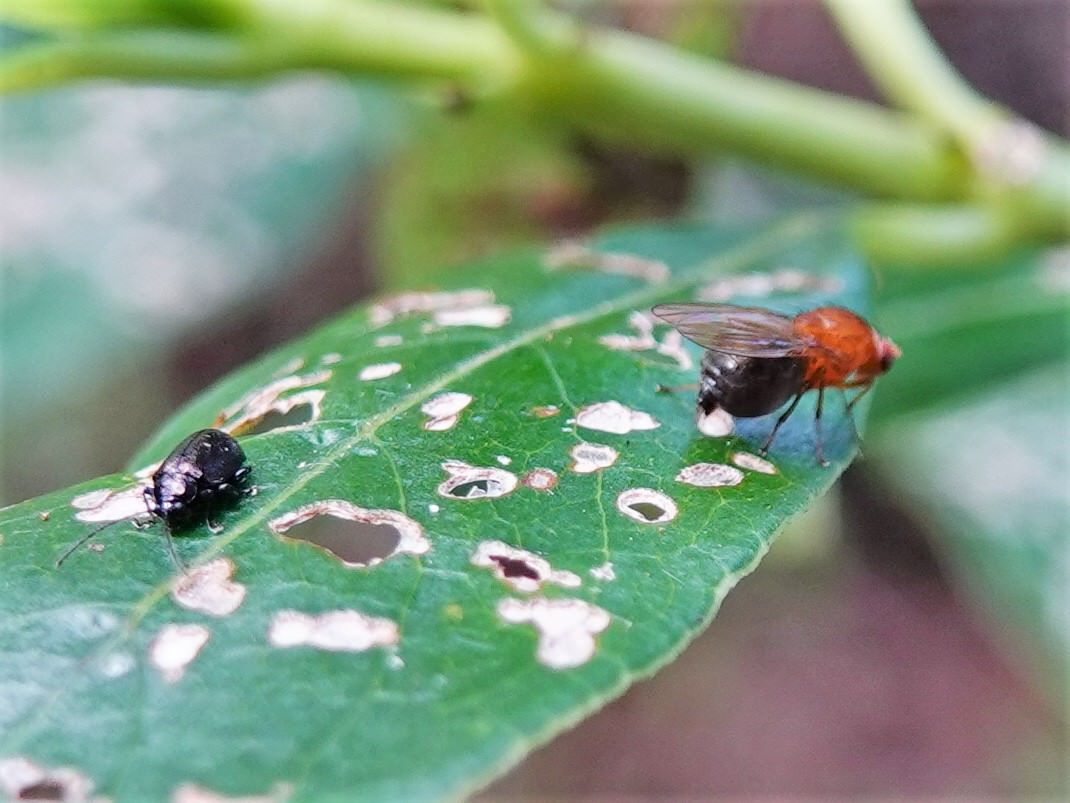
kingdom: Animalia
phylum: Arthropoda
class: Insecta
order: Coleoptera
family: Chrysomelidae
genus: Pleuraltica
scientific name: Pleuraltica cyanea
